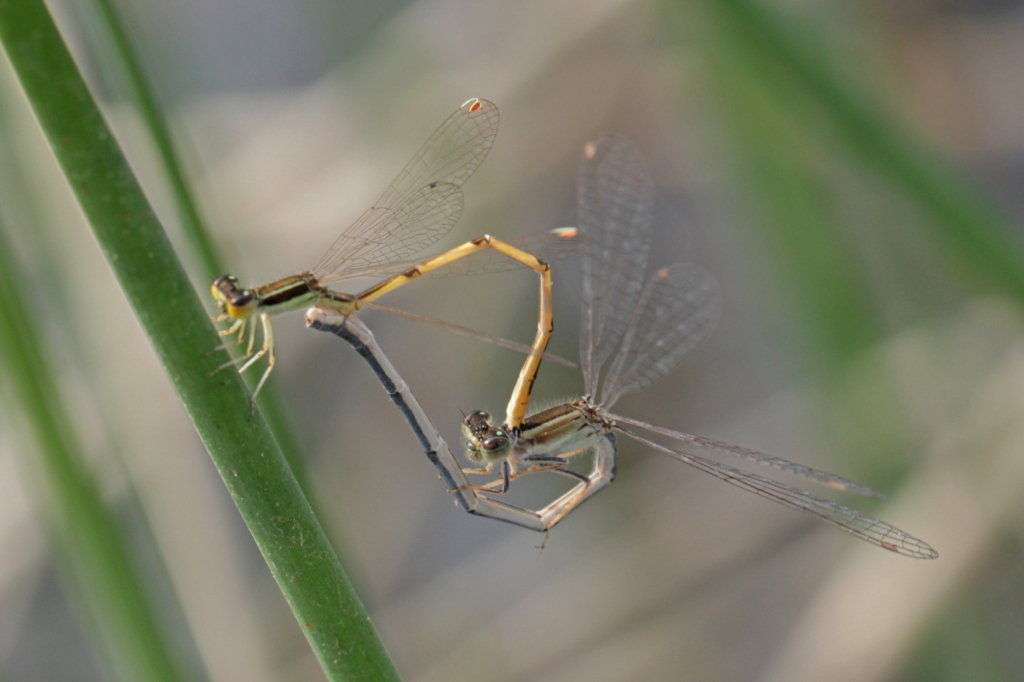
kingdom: Animalia
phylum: Arthropoda
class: Insecta
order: Odonata
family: Coenagrionidae
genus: Ischnura
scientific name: Ischnura hastata
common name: Citrine forktail
